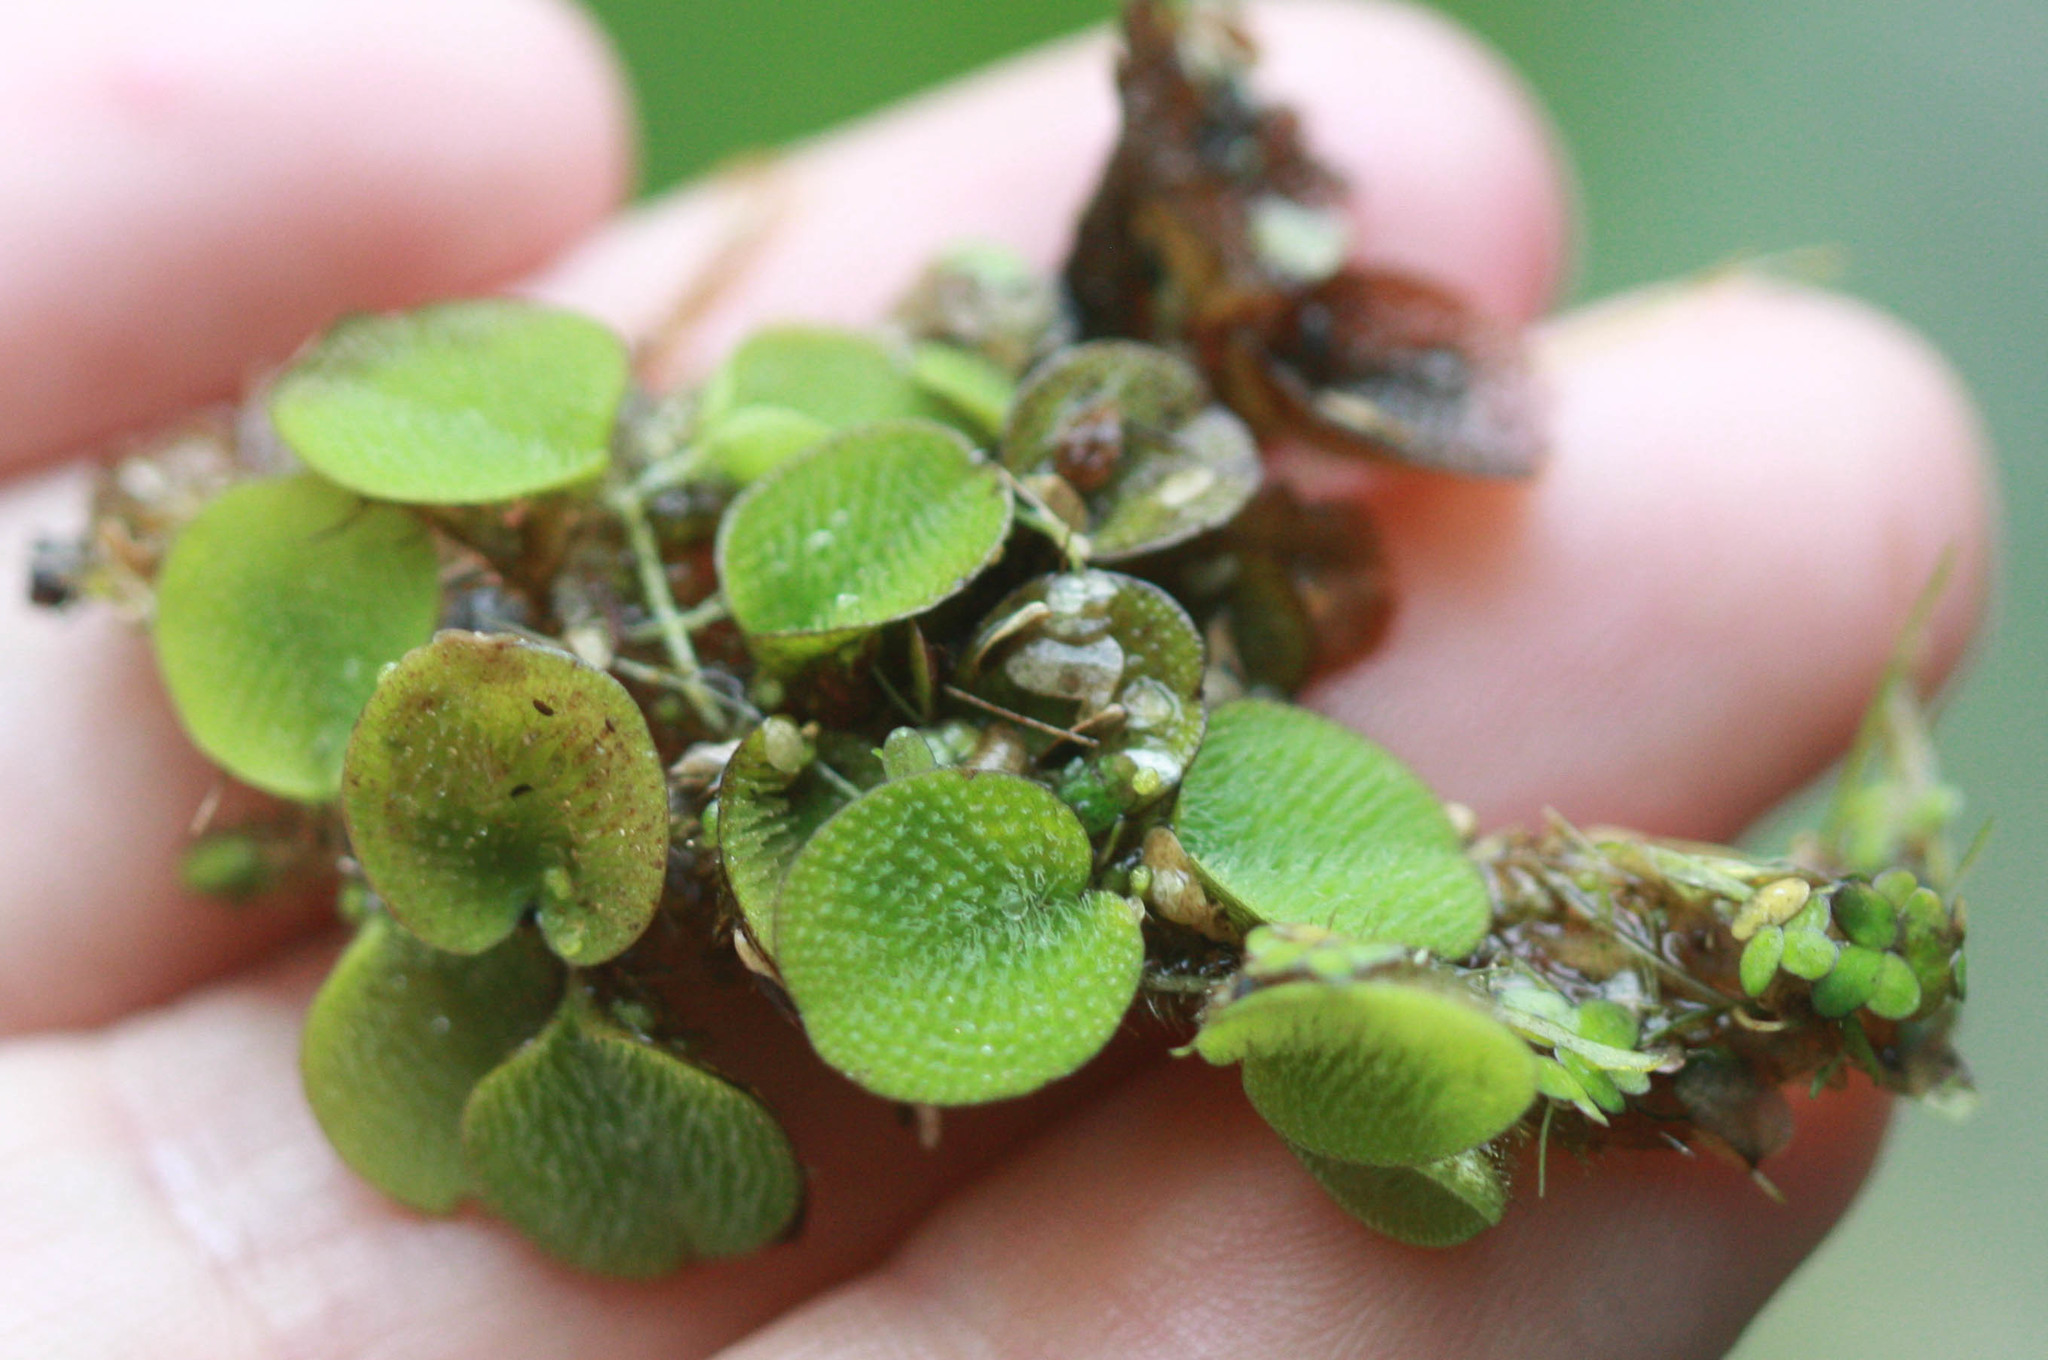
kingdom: Plantae
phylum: Tracheophyta
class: Polypodiopsida
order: Salviniales
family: Salviniaceae
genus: Salvinia
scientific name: Salvinia minima
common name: Water spangles
